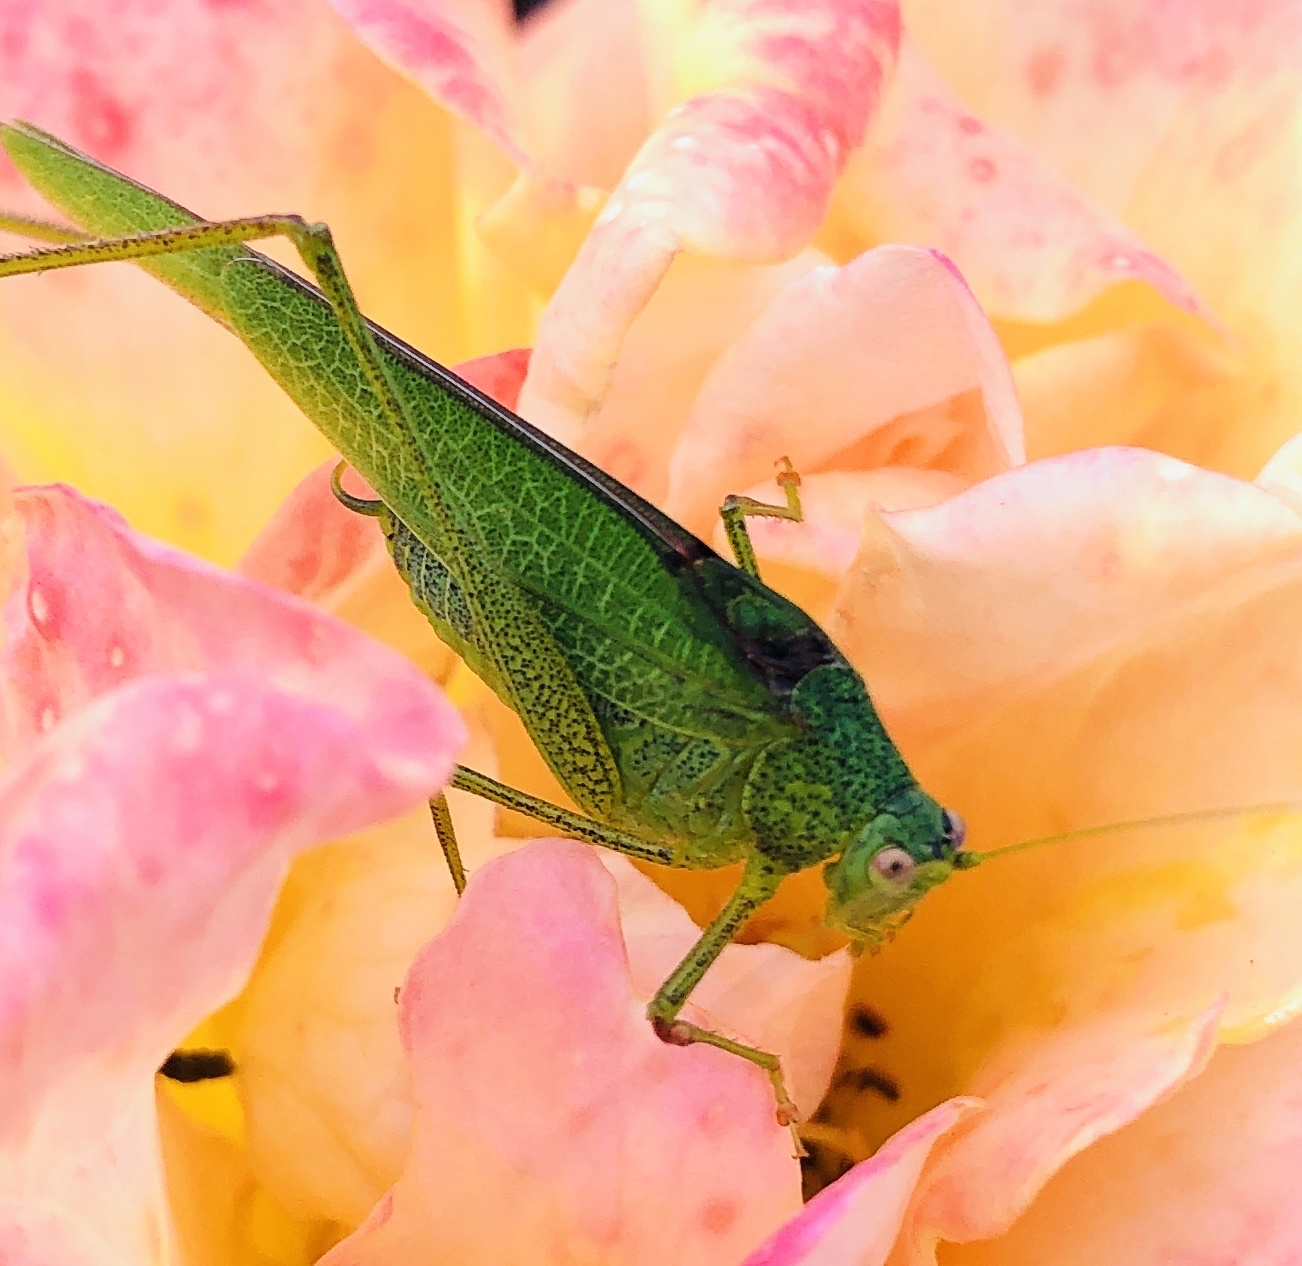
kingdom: Animalia
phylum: Arthropoda
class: Insecta
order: Orthoptera
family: Tettigoniidae
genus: Phaneroptera
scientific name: Phaneroptera nana
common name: Southern sickle bush-cricket
